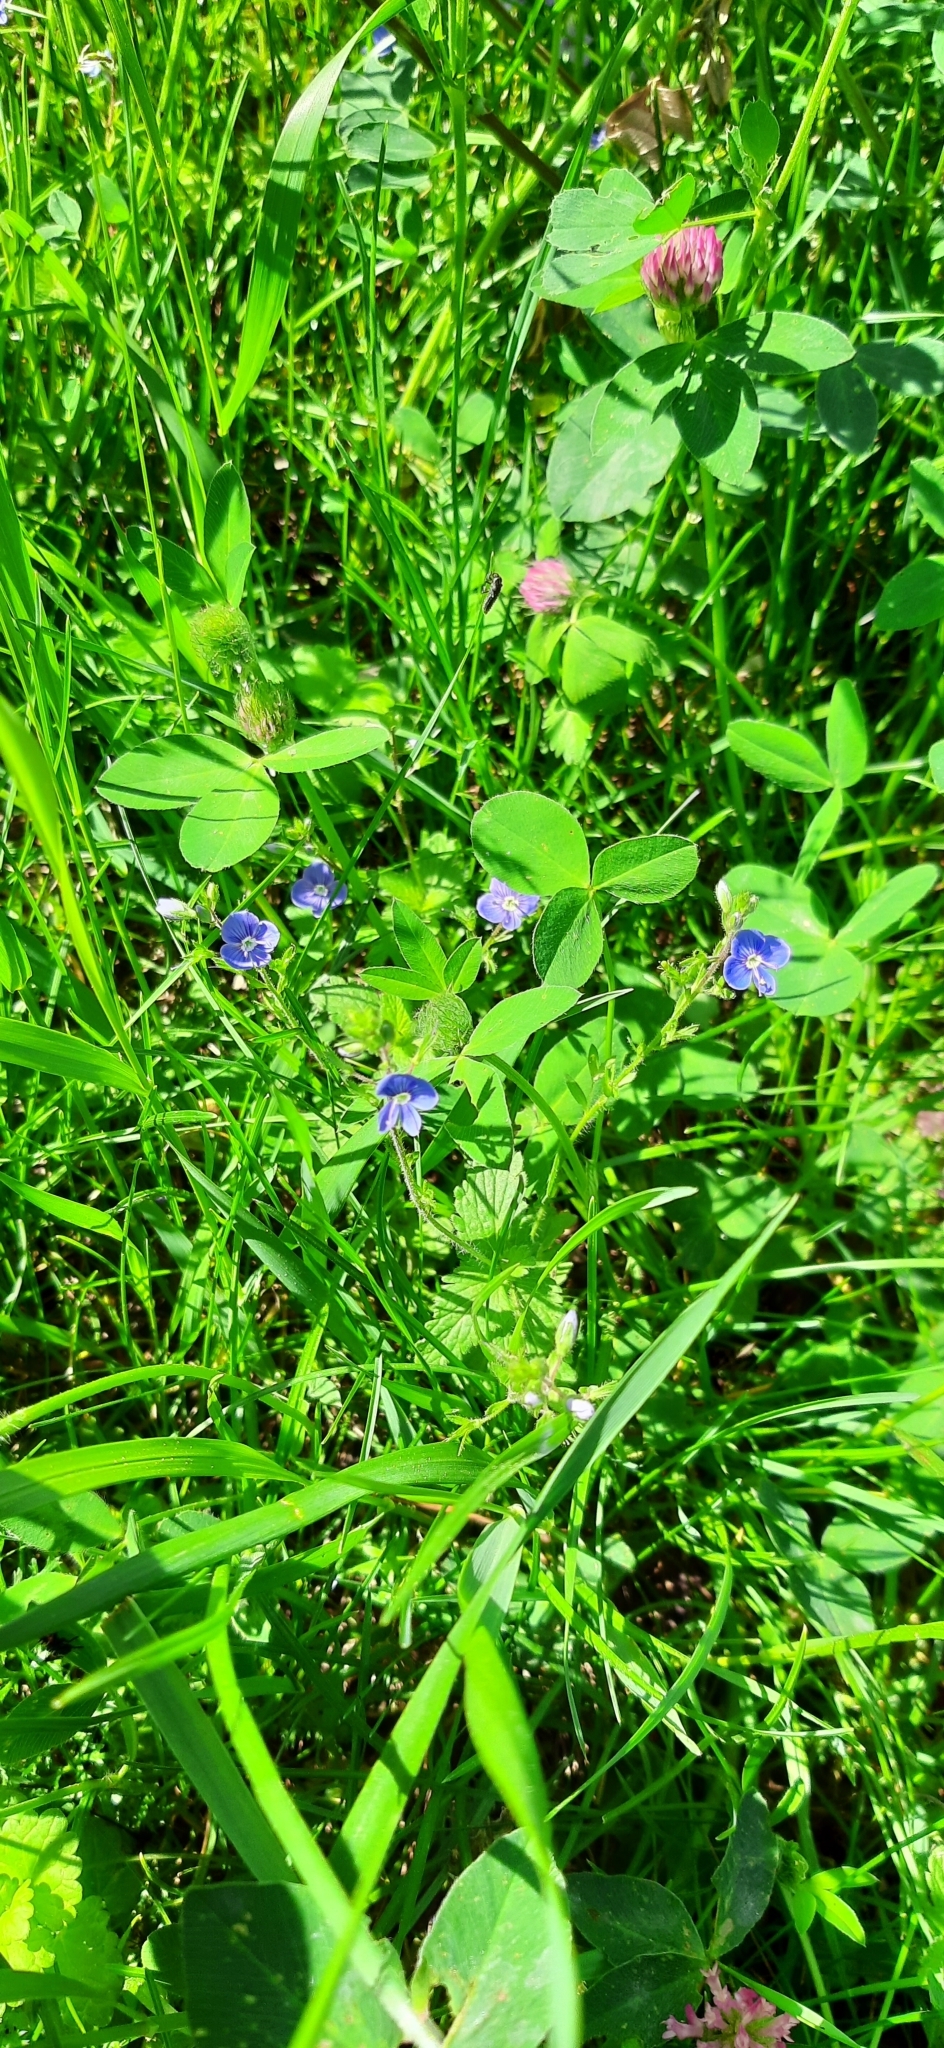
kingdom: Plantae
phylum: Tracheophyta
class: Magnoliopsida
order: Lamiales
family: Plantaginaceae
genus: Veronica
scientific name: Veronica chamaedrys
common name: Germander speedwell
